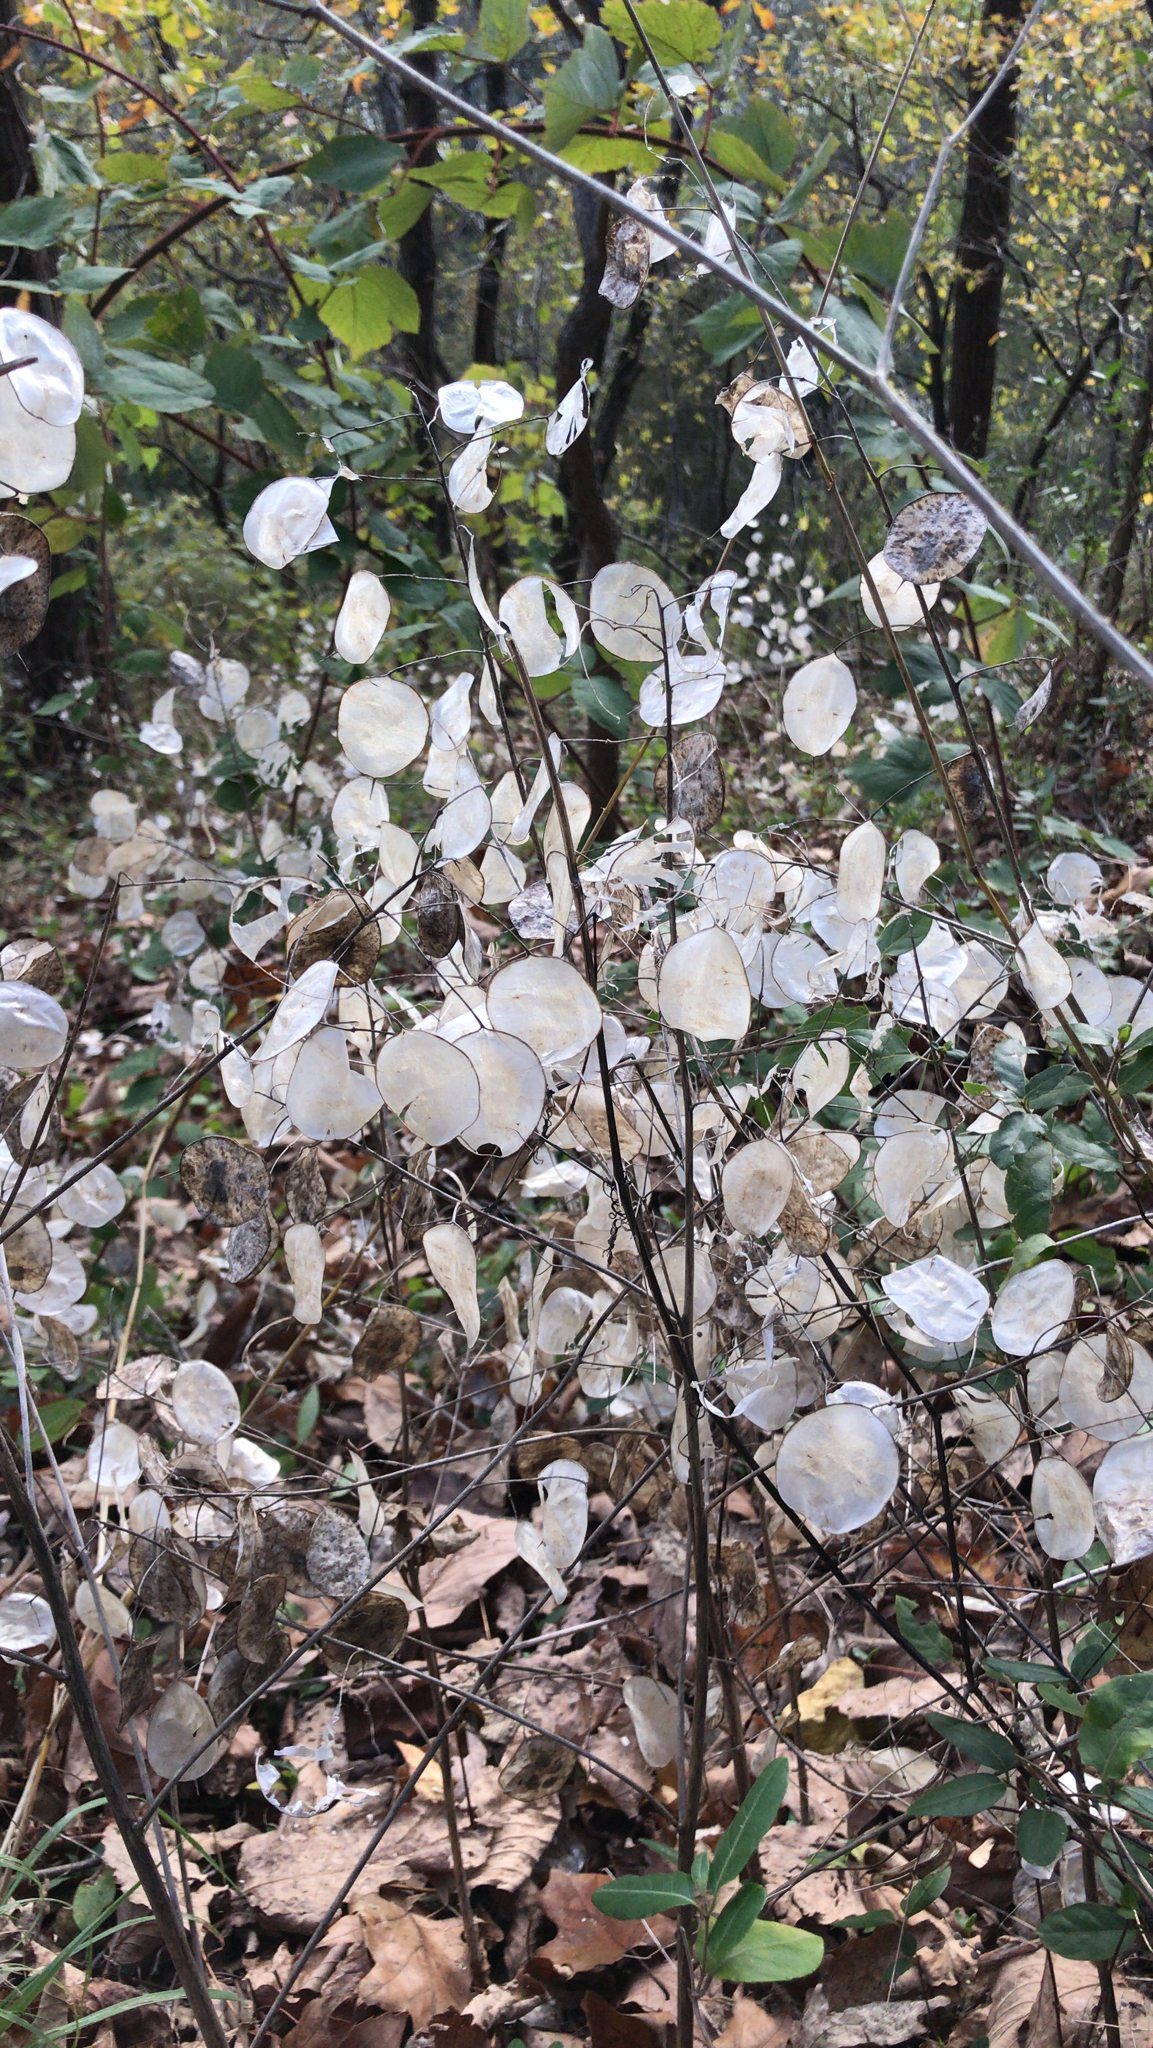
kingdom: Plantae
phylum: Tracheophyta
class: Magnoliopsida
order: Brassicales
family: Brassicaceae
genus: Lunaria
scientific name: Lunaria annua
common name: Honesty
